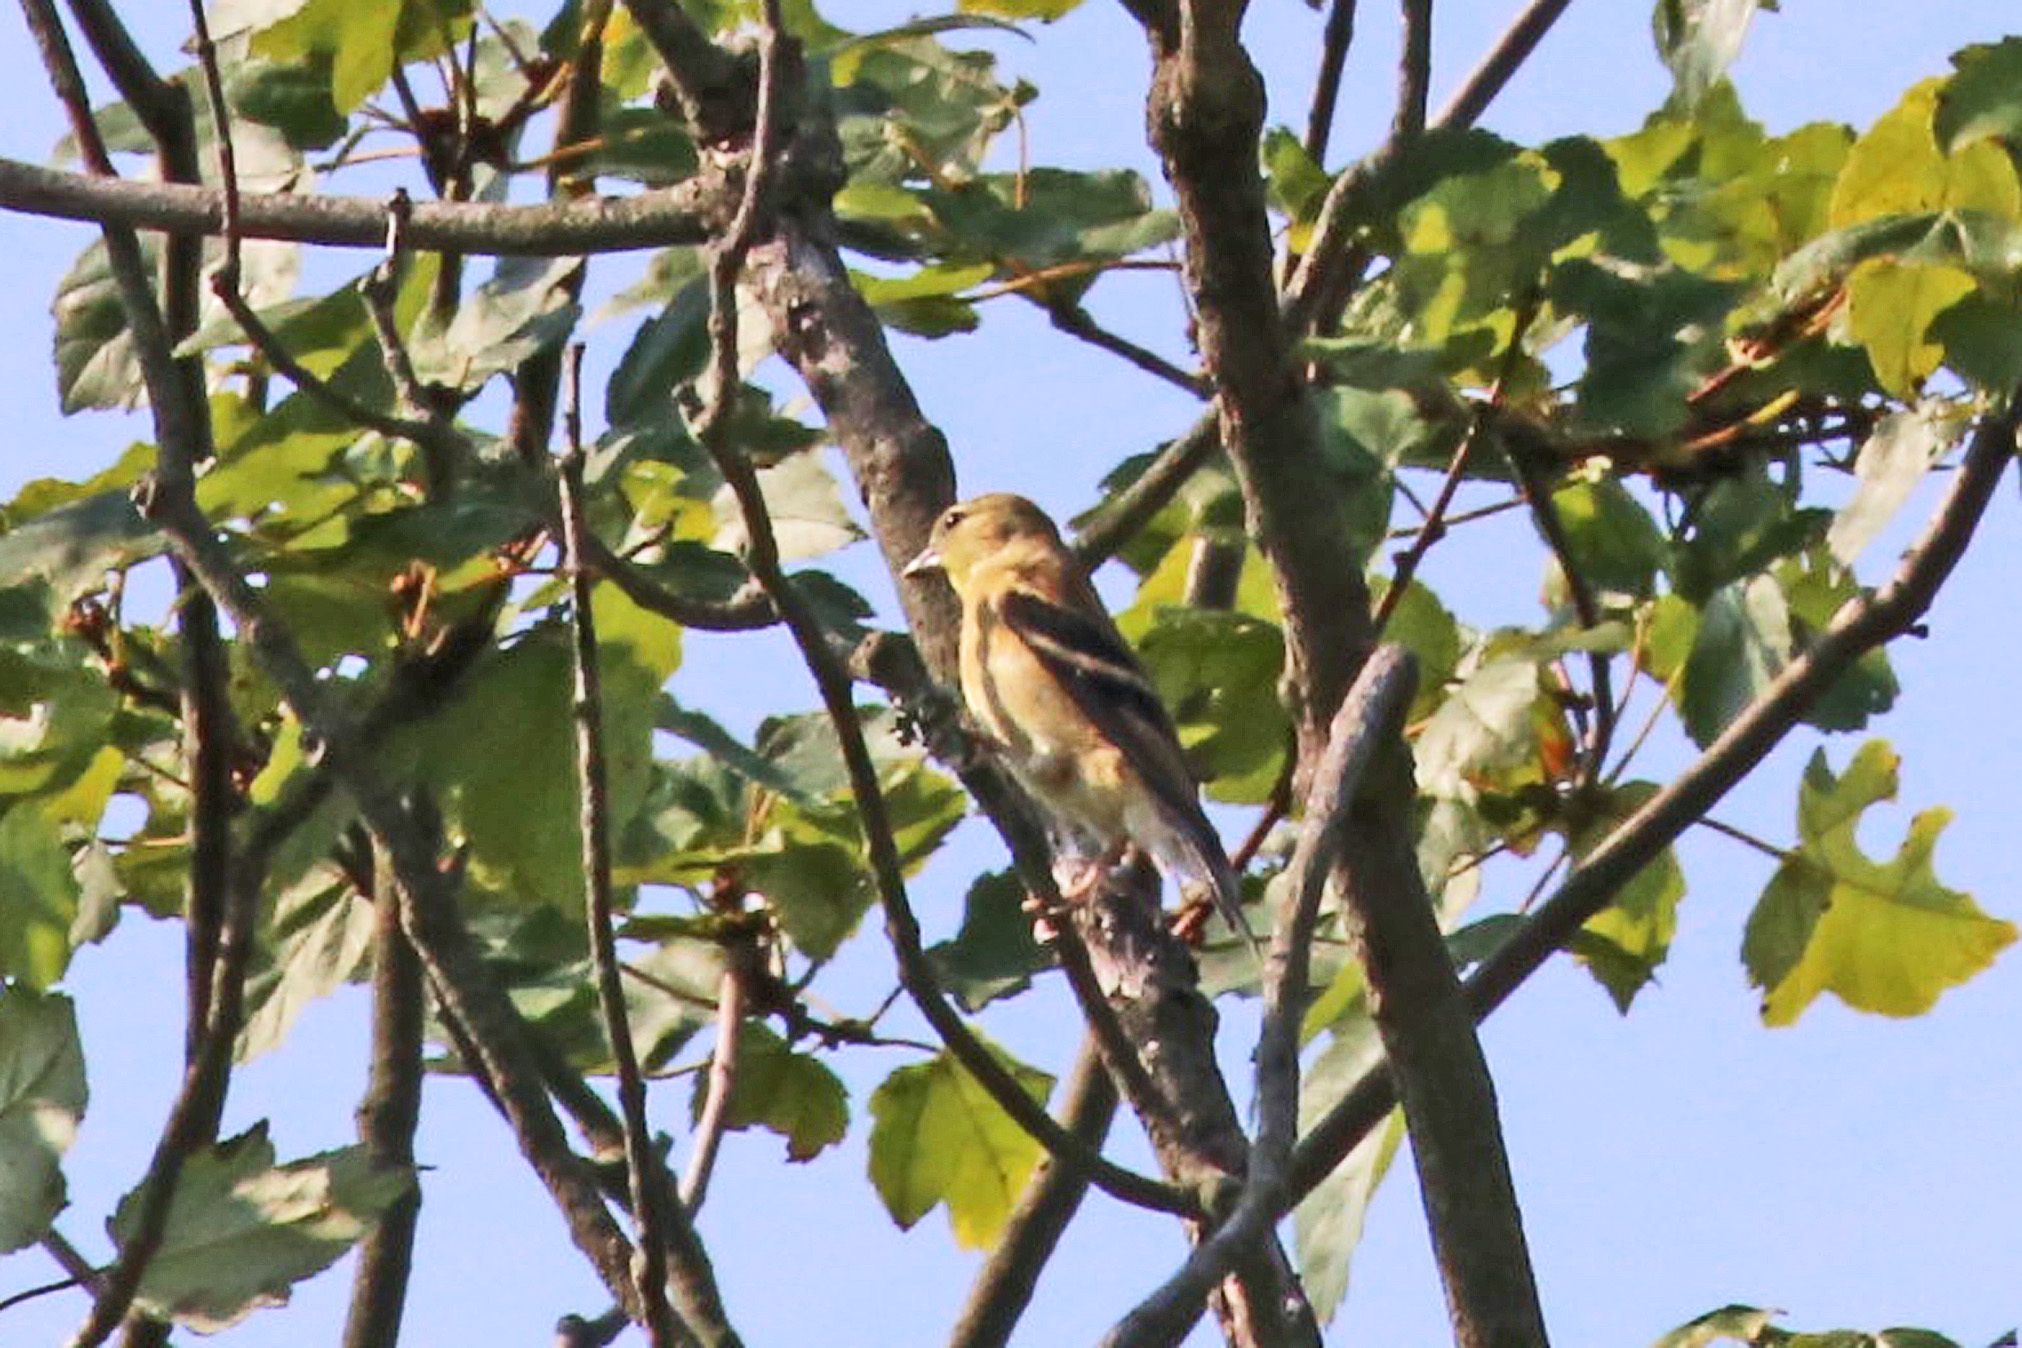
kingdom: Animalia
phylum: Chordata
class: Aves
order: Passeriformes
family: Fringillidae
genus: Spinus
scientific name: Spinus tristis
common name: American goldfinch
